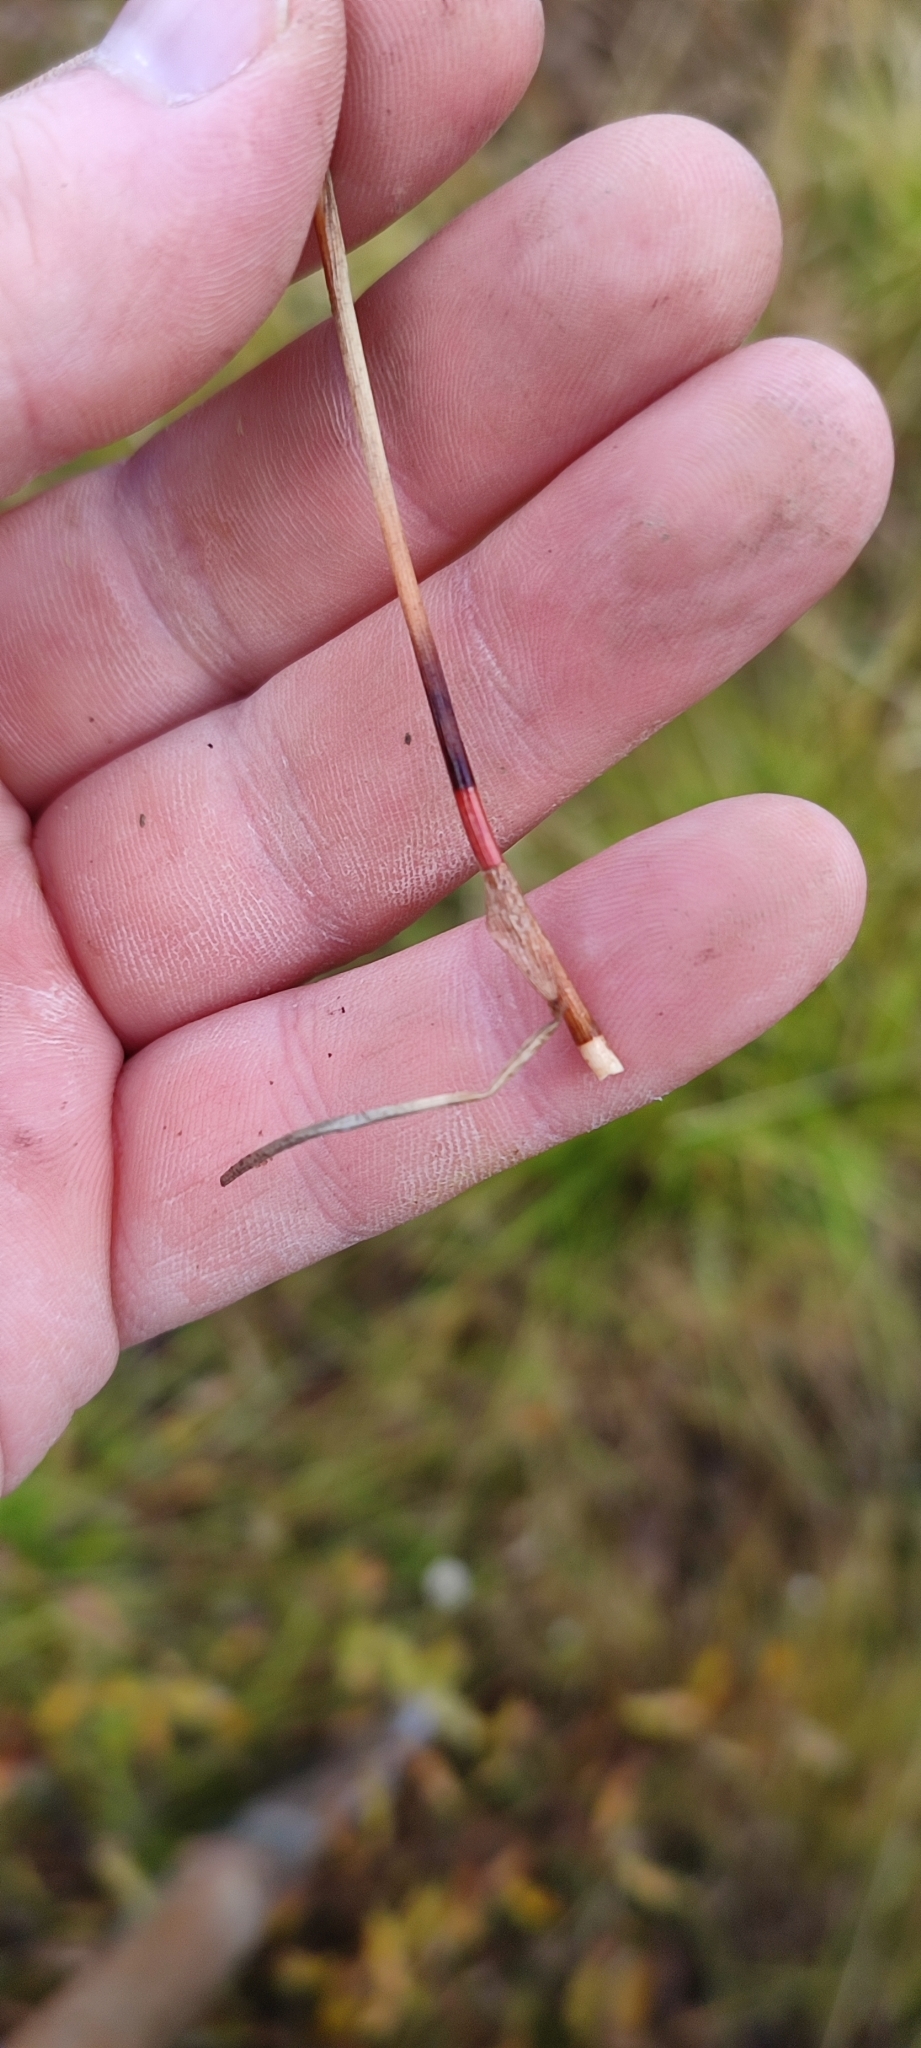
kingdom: Plantae
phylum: Tracheophyta
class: Liliopsida
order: Poales
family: Cyperaceae
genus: Eriophorum
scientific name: Eriophorum scheuchzeri
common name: Scheuchzer's cottongrass
